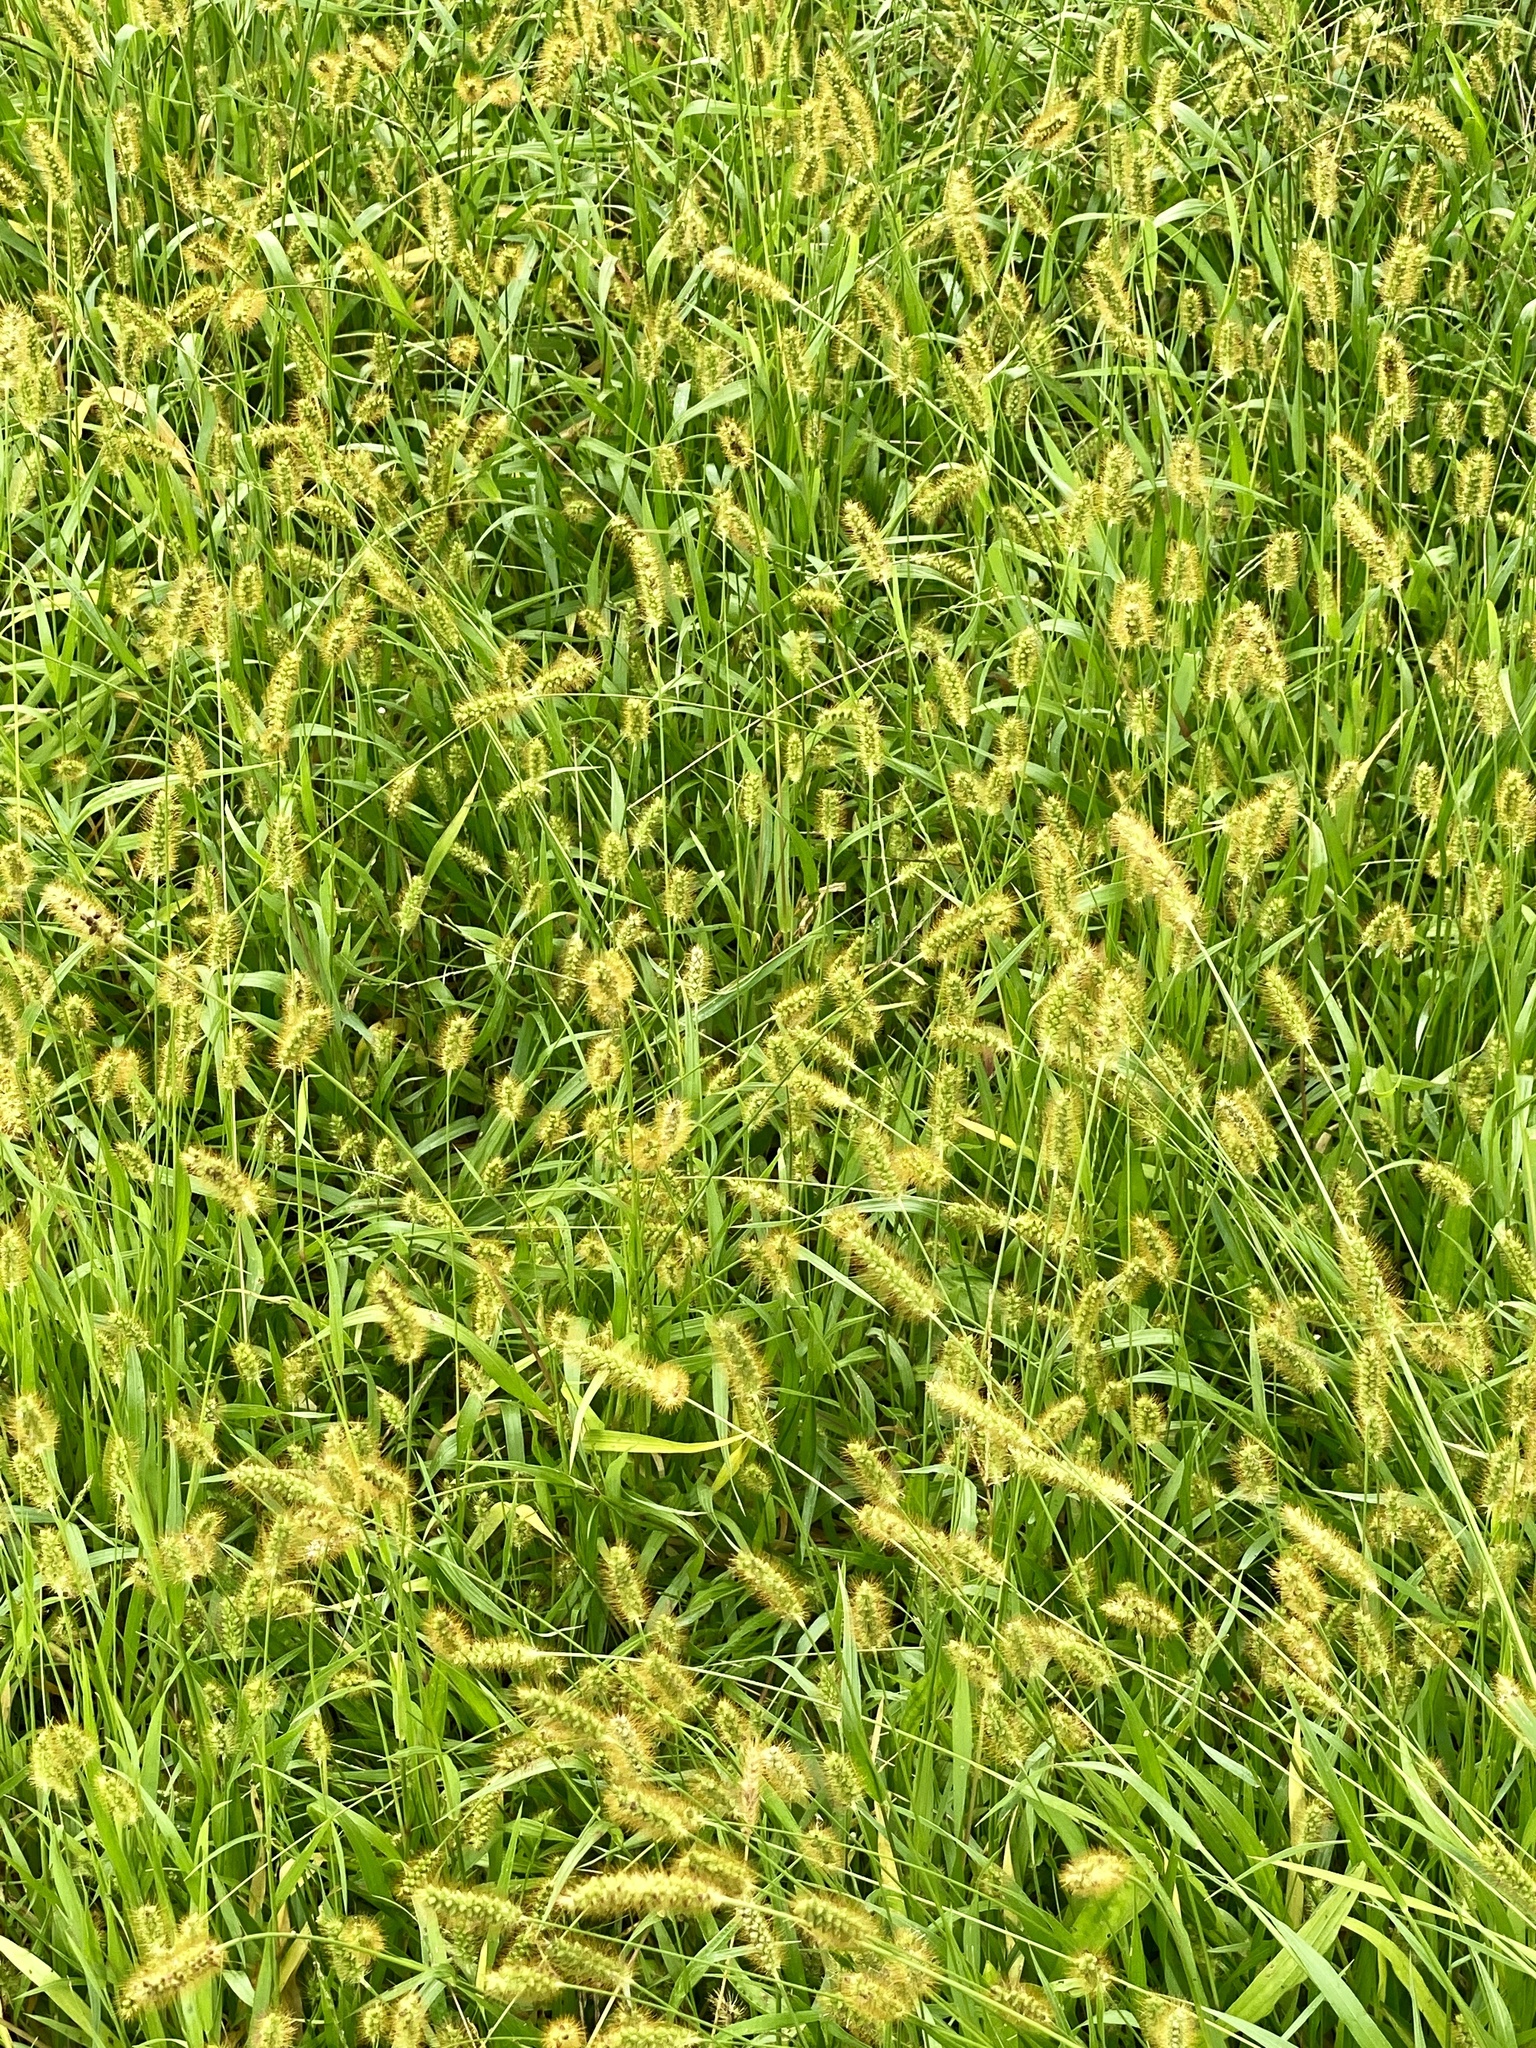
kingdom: Plantae
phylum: Tracheophyta
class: Liliopsida
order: Poales
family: Poaceae
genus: Setaria
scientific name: Setaria pumila
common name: Yellow bristle-grass
